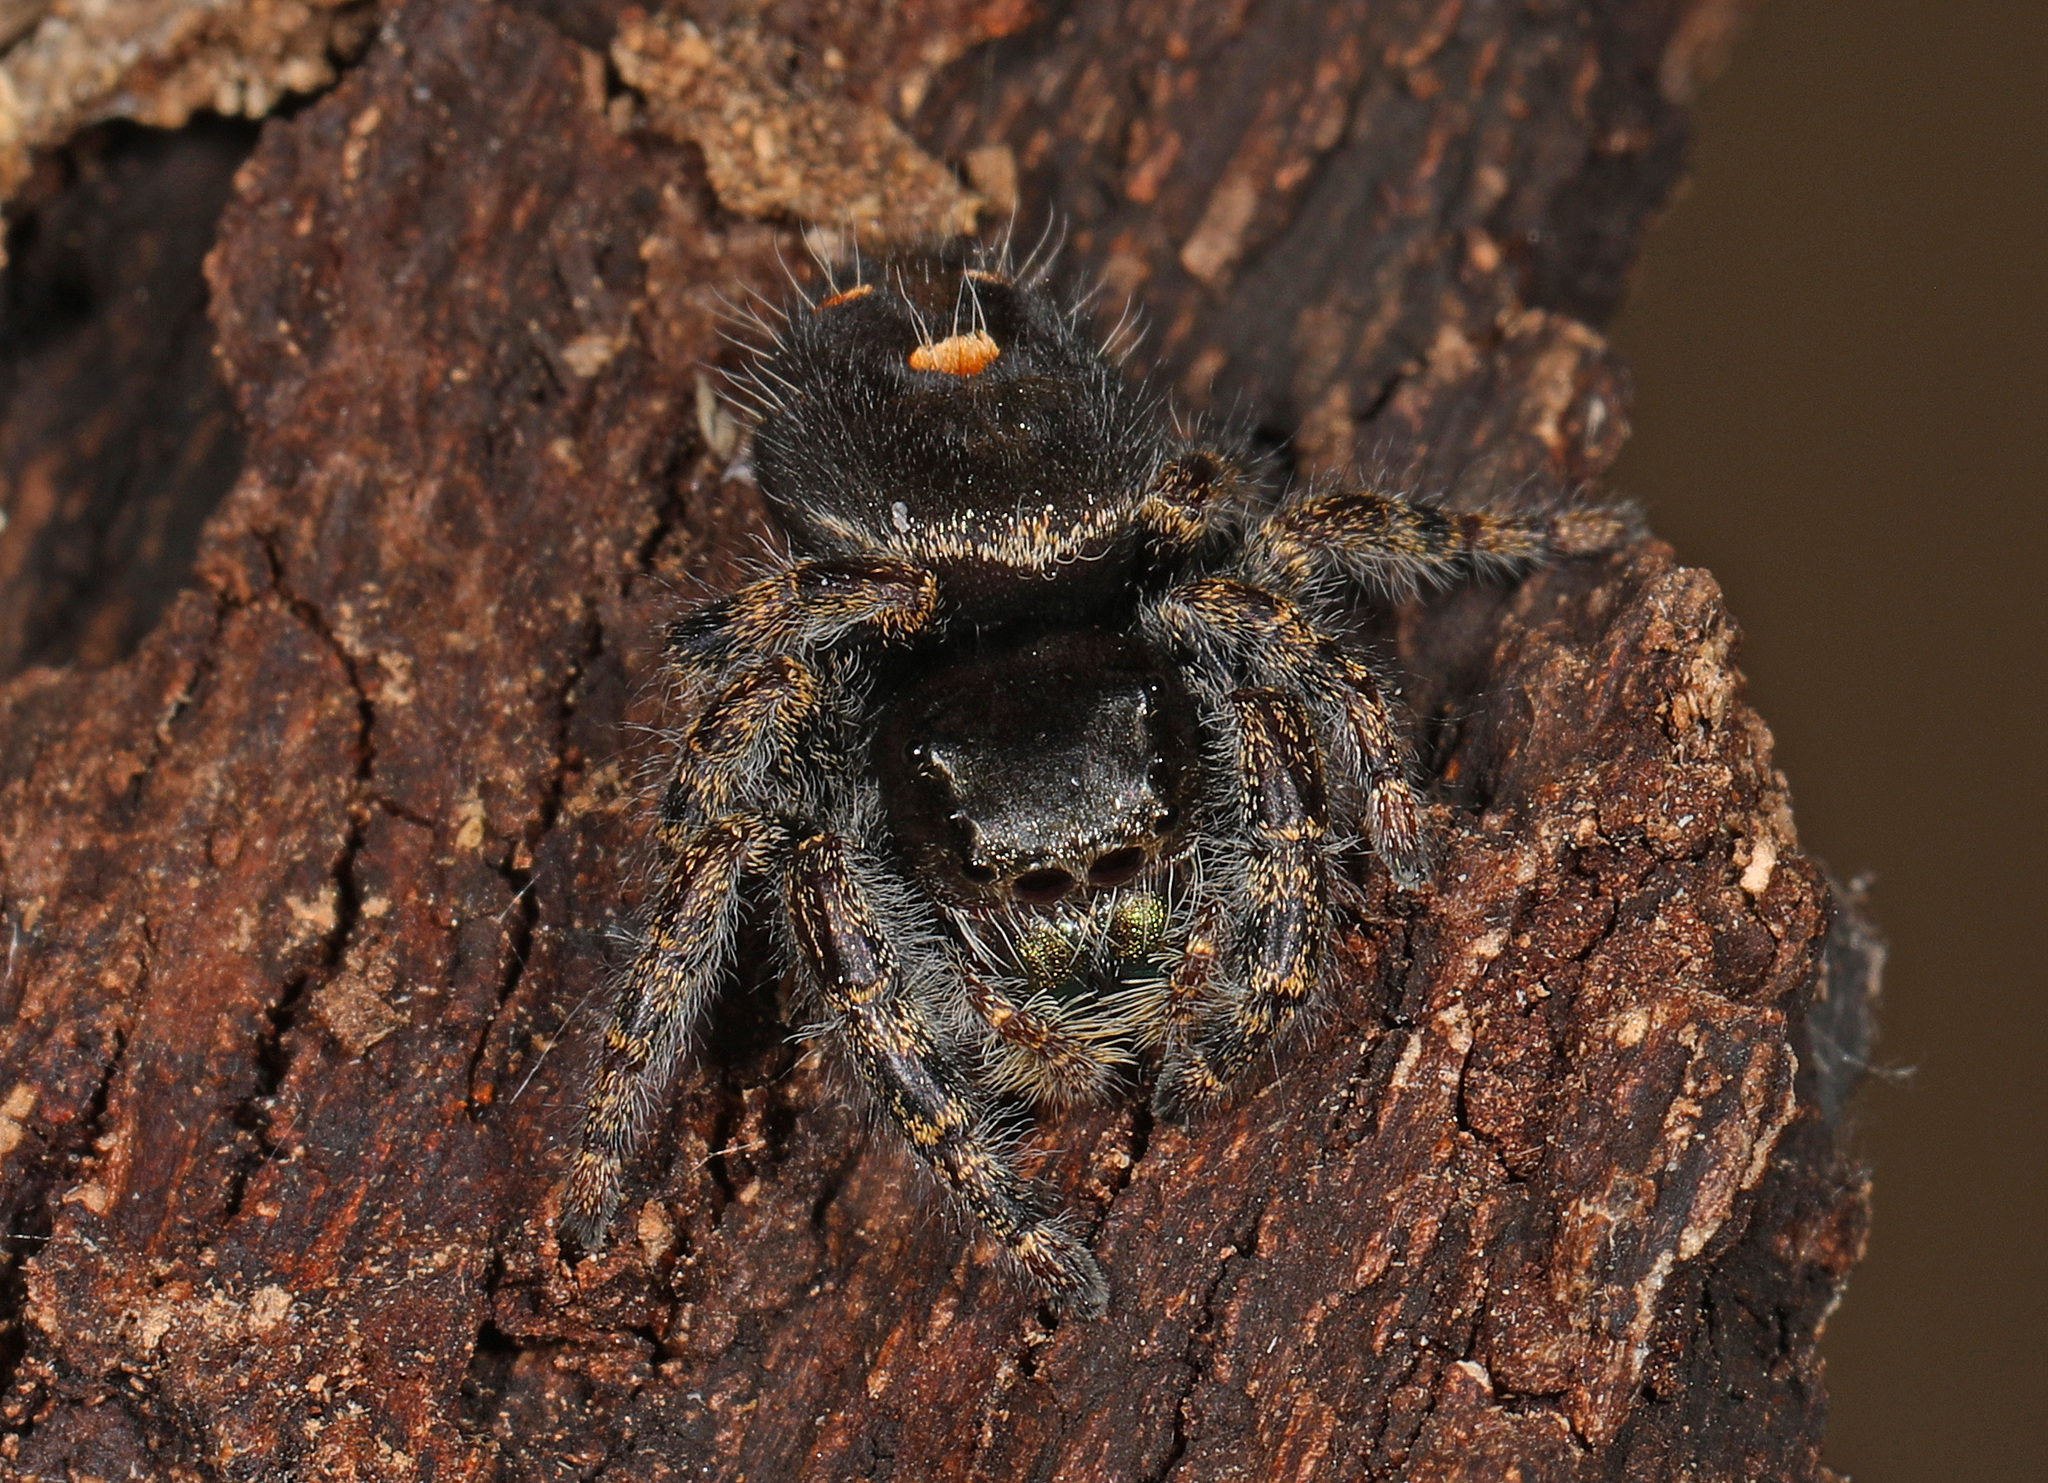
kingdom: Animalia
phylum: Arthropoda
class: Arachnida
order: Araneae
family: Salticidae
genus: Phidippus
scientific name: Phidippus audax
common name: Bold jumper
